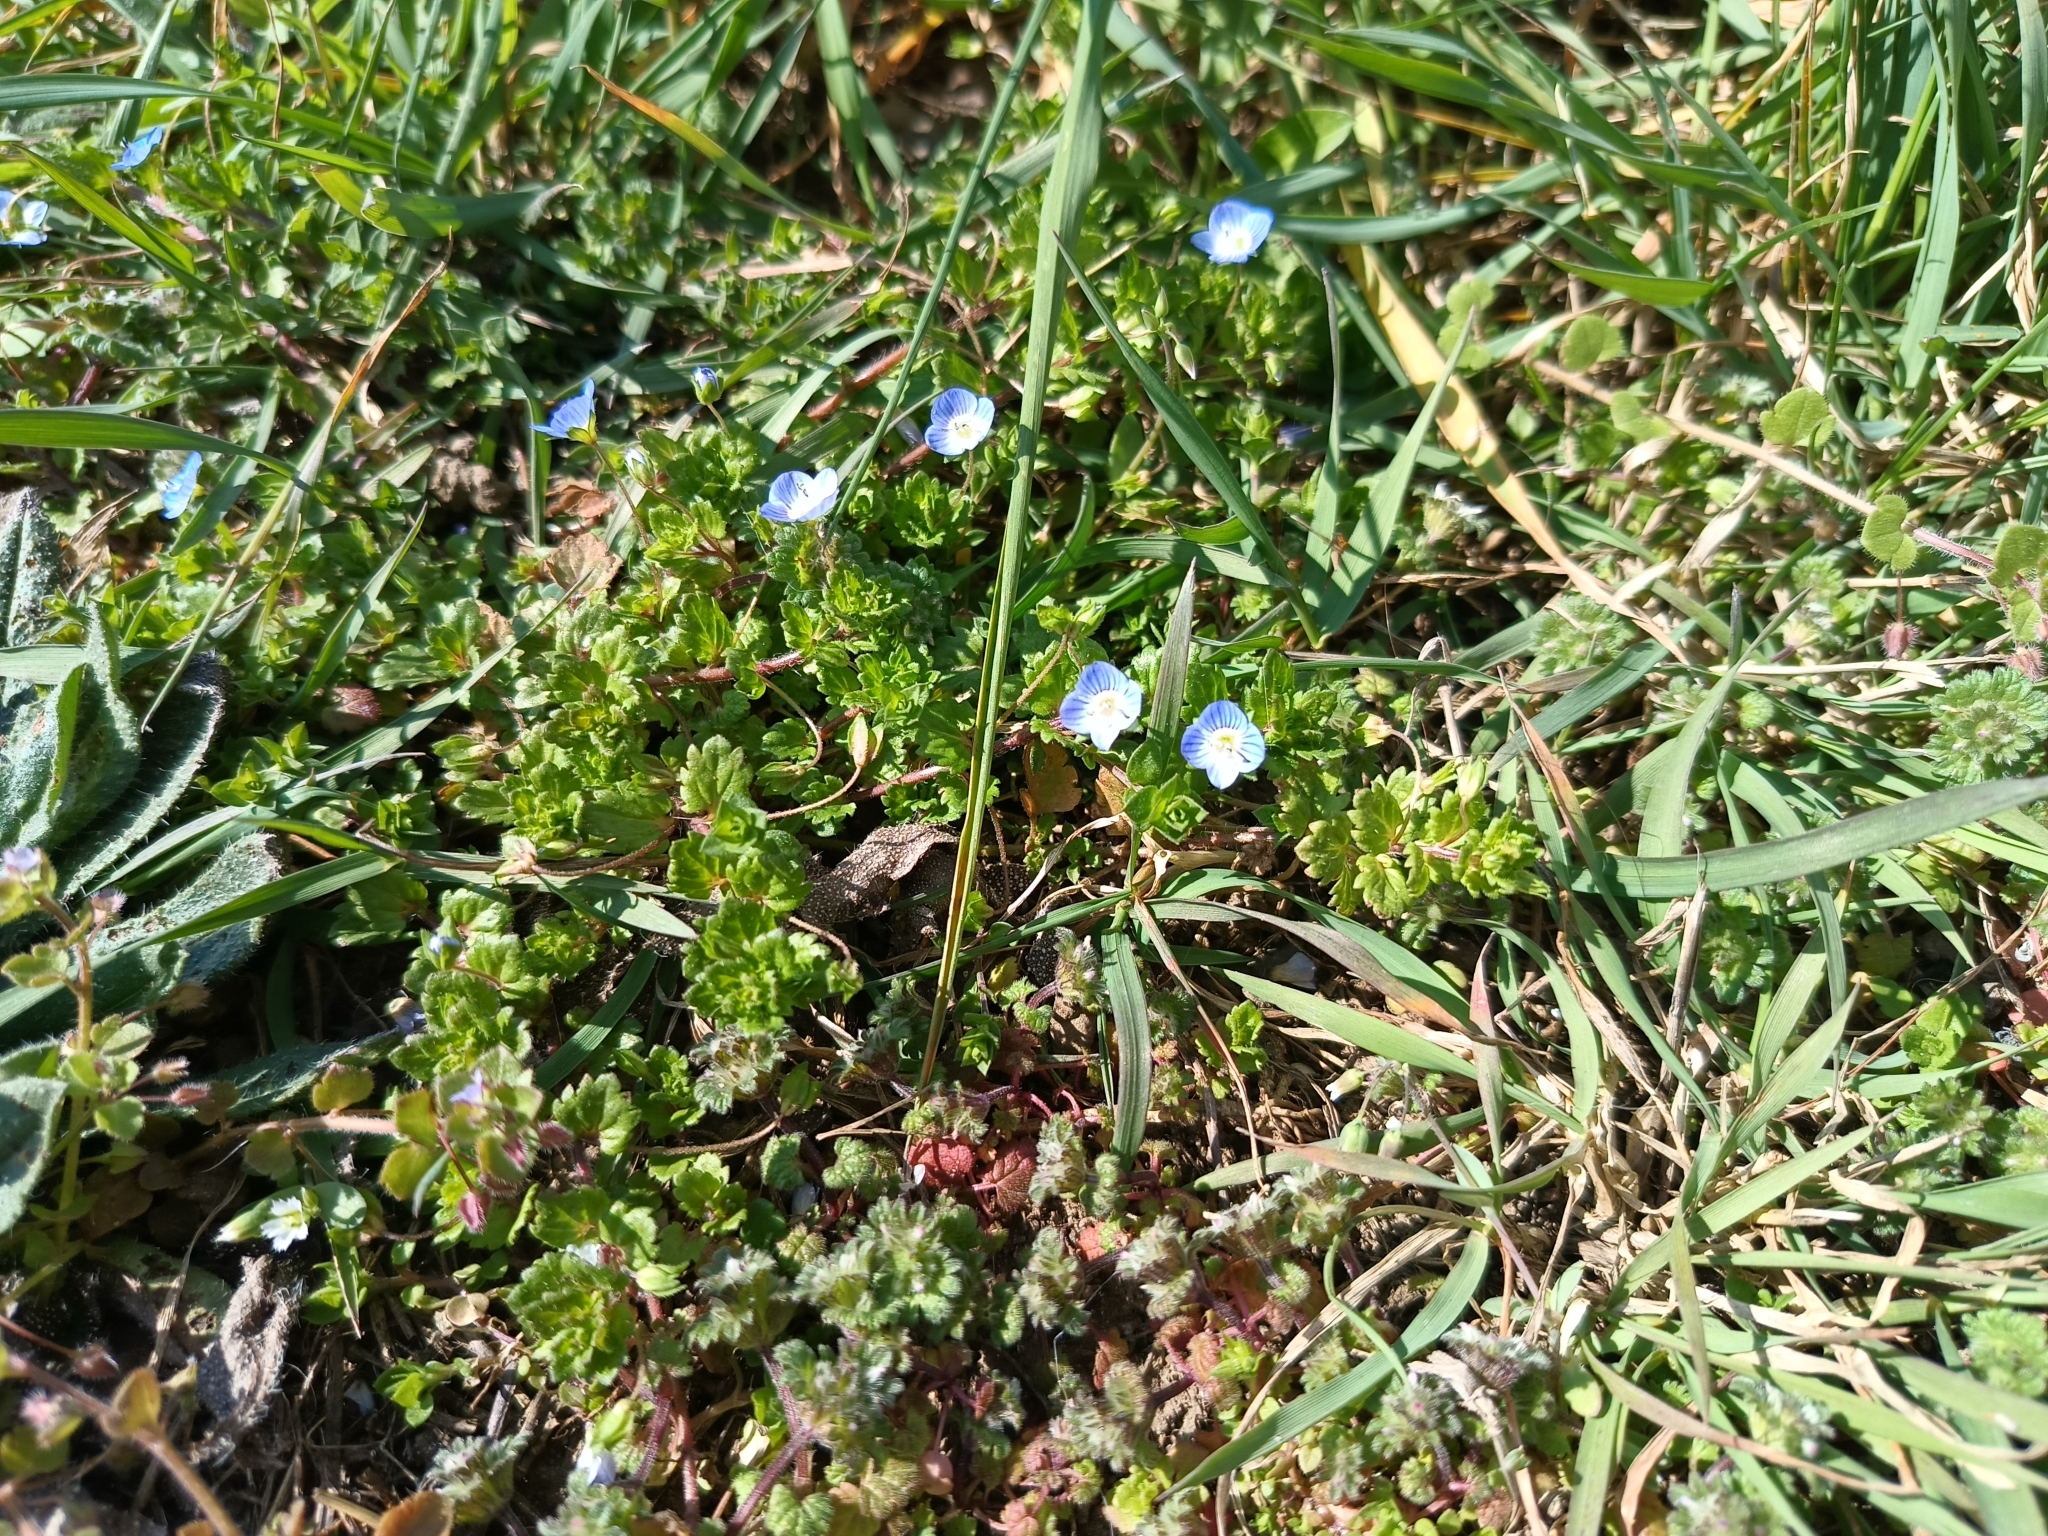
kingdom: Plantae
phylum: Tracheophyta
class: Magnoliopsida
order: Lamiales
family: Plantaginaceae
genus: Veronica
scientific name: Veronica persica
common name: Common field-speedwell
